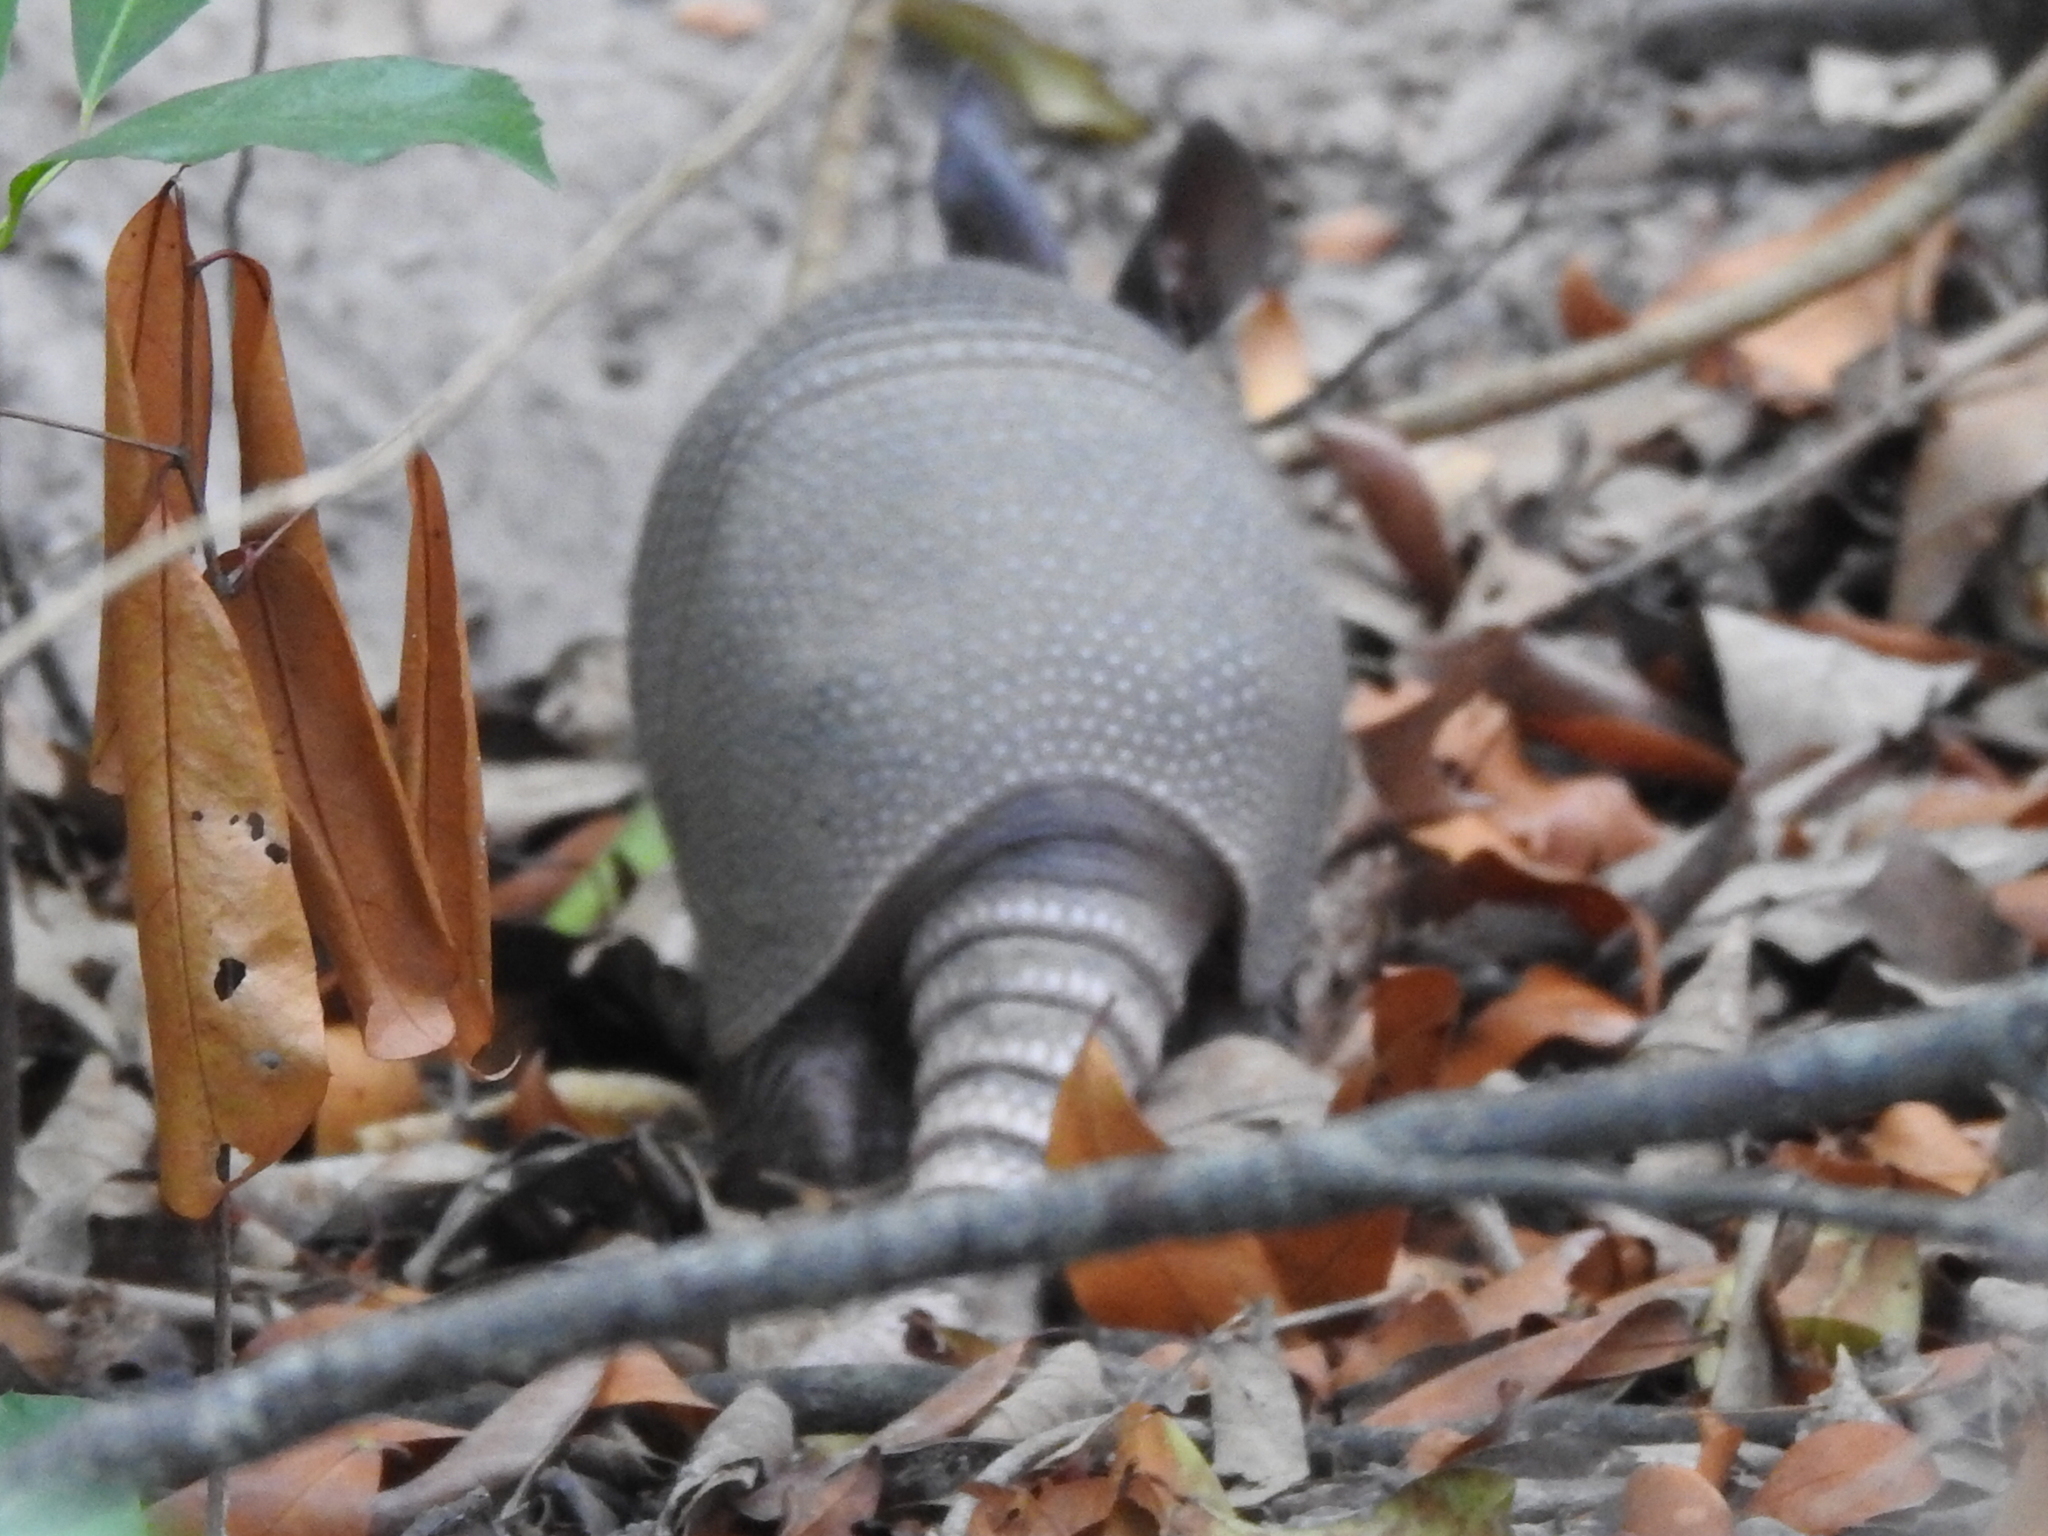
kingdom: Animalia
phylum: Chordata
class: Mammalia
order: Cingulata
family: Dasypodidae
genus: Dasypus
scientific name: Dasypus novemcinctus
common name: Nine-banded armadillo
